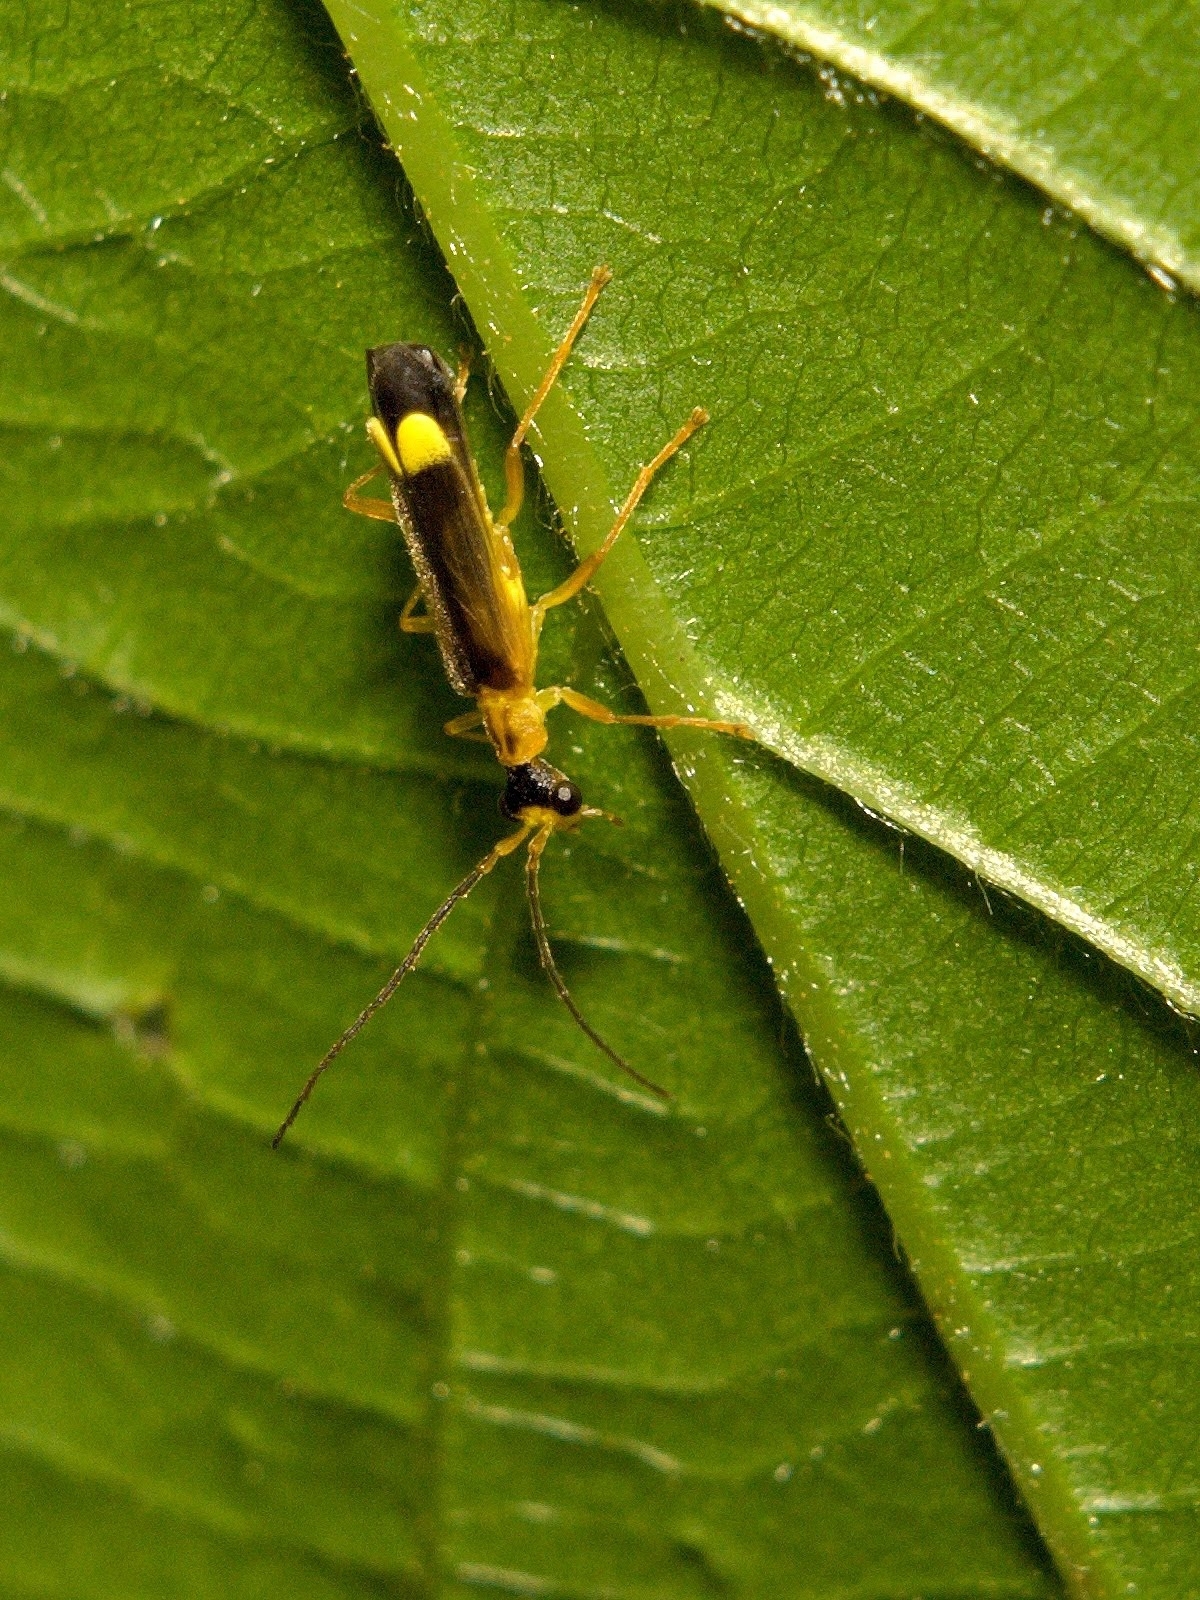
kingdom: Animalia
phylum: Arthropoda
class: Insecta
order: Coleoptera
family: Cantharidae
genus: Malthinus
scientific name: Malthinus flaveolus
